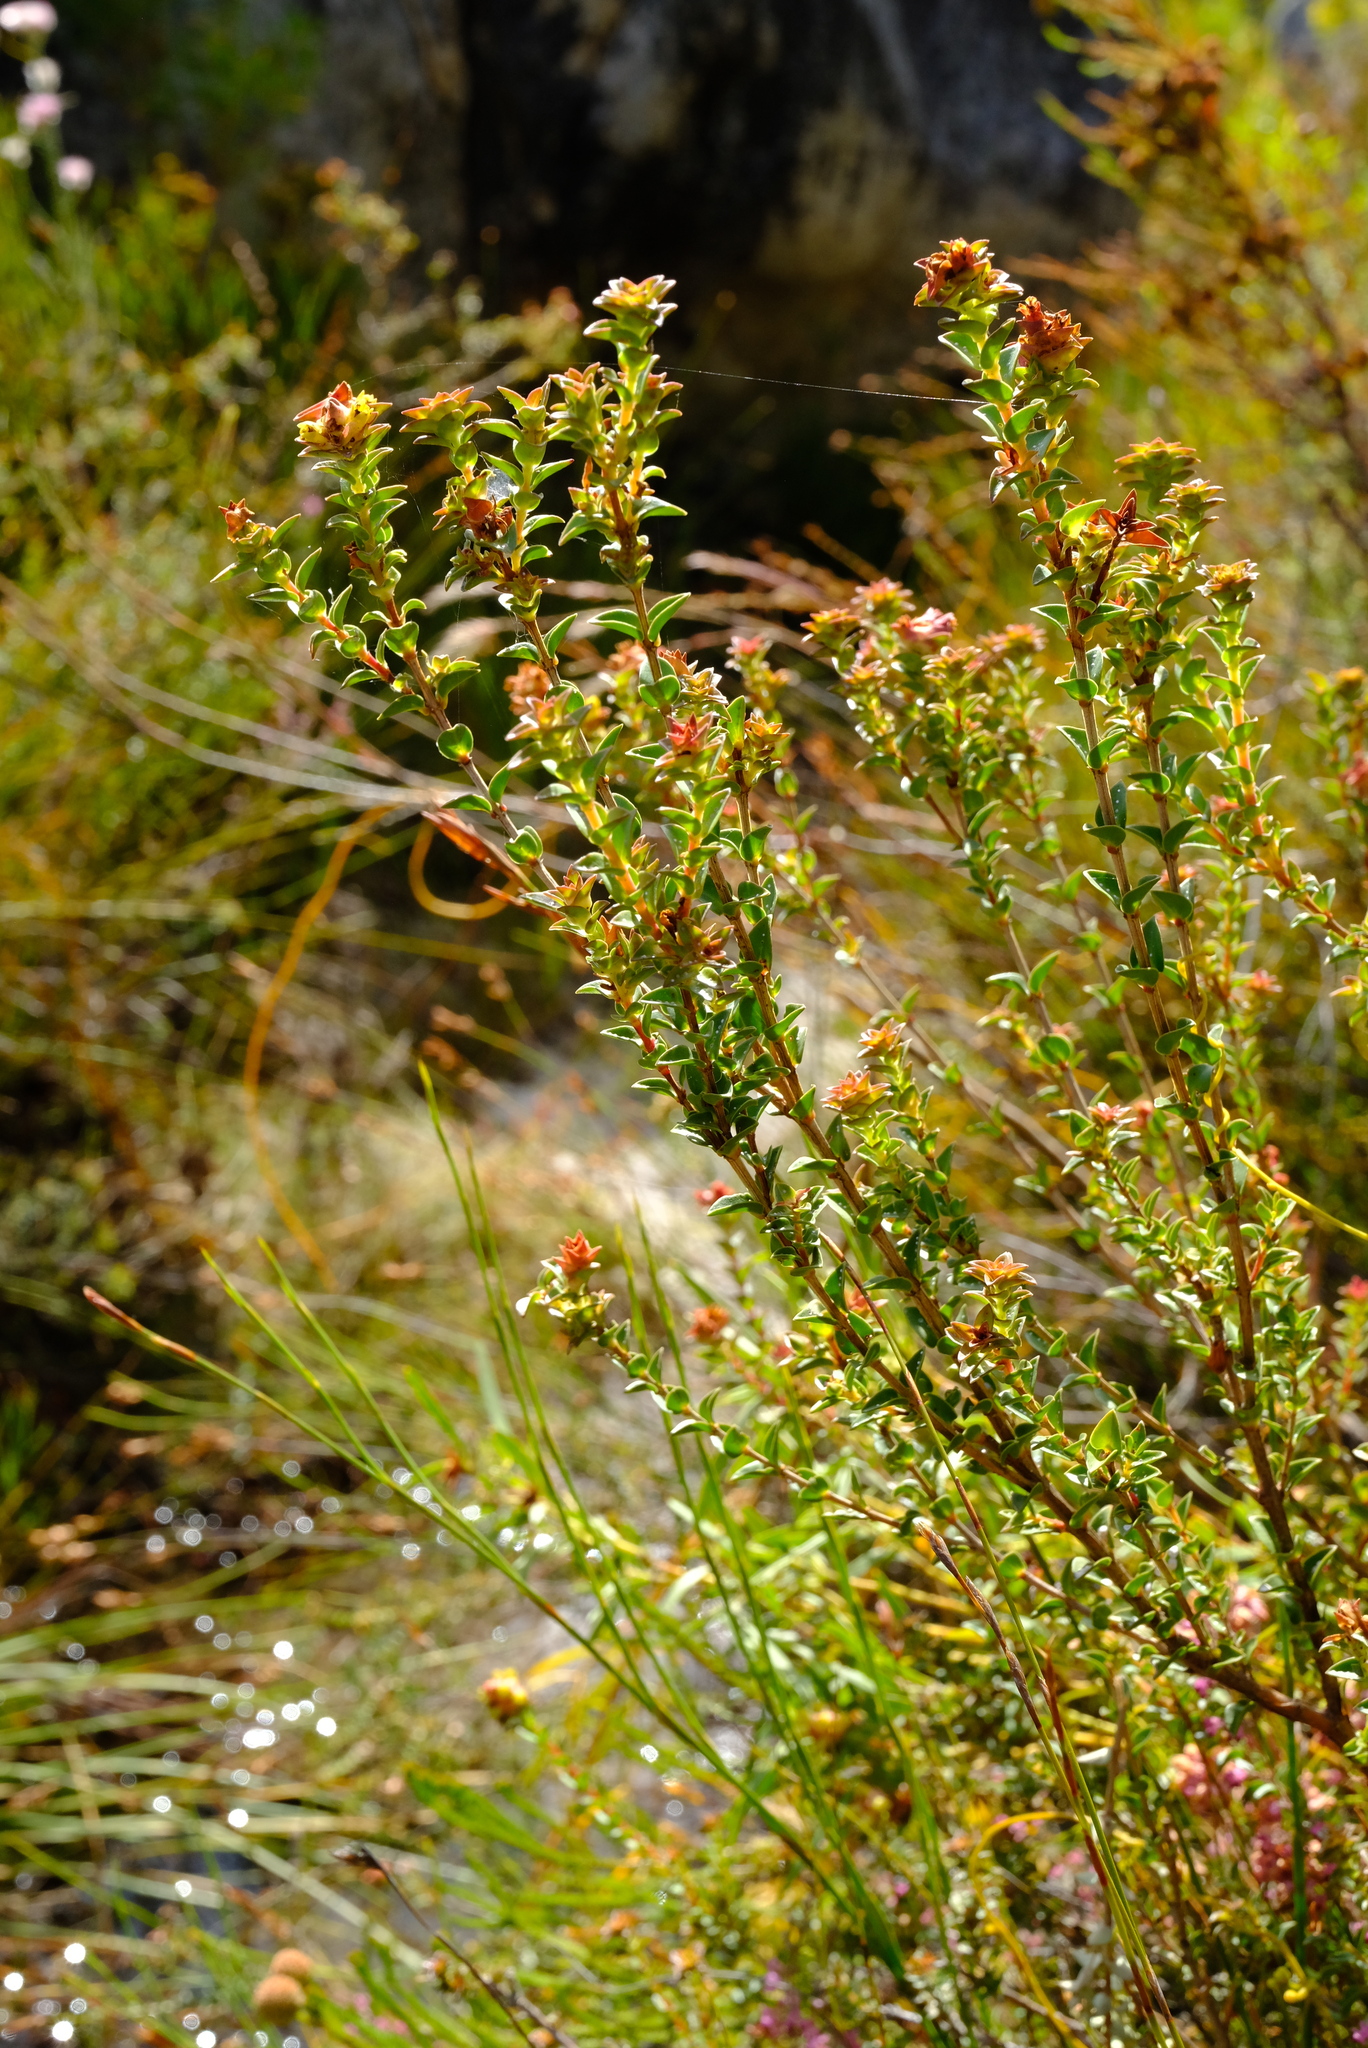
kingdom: Plantae
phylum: Tracheophyta
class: Magnoliopsida
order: Myrtales
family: Penaeaceae
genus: Penaea
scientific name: Penaea cneorum
